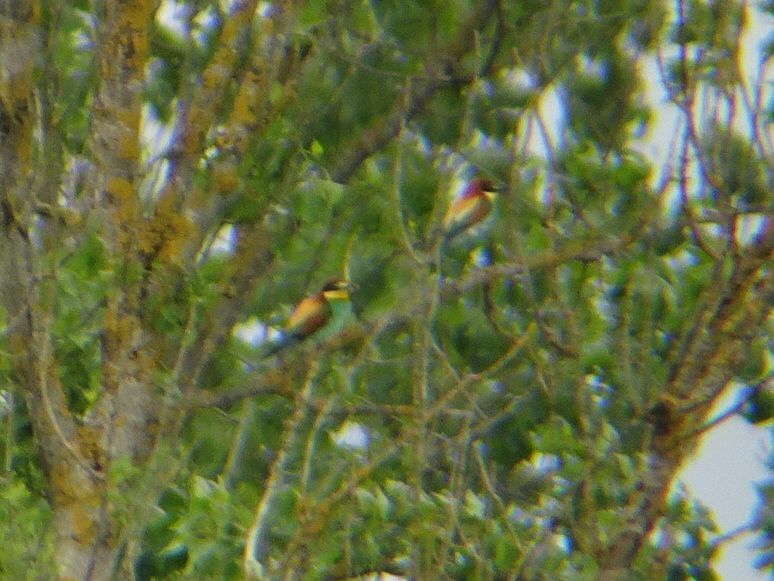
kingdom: Animalia
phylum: Chordata
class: Aves
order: Coraciiformes
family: Meropidae
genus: Merops
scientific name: Merops apiaster
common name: European bee-eater
